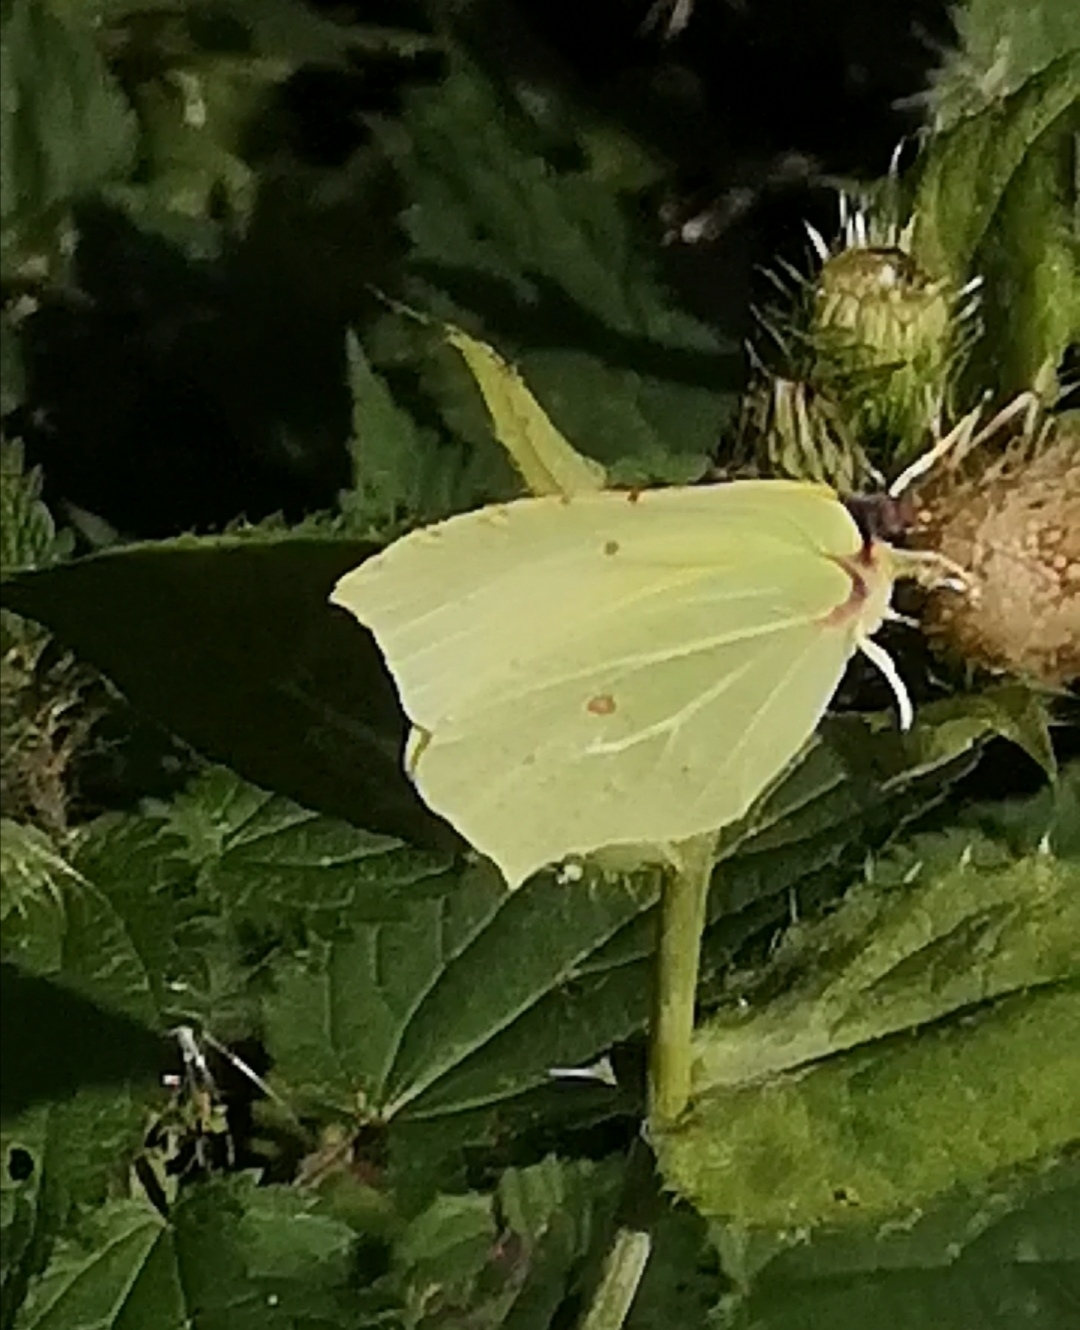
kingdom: Animalia
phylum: Arthropoda
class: Insecta
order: Lepidoptera
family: Pieridae
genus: Gonepteryx
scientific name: Gonepteryx rhamni
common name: Brimstone
